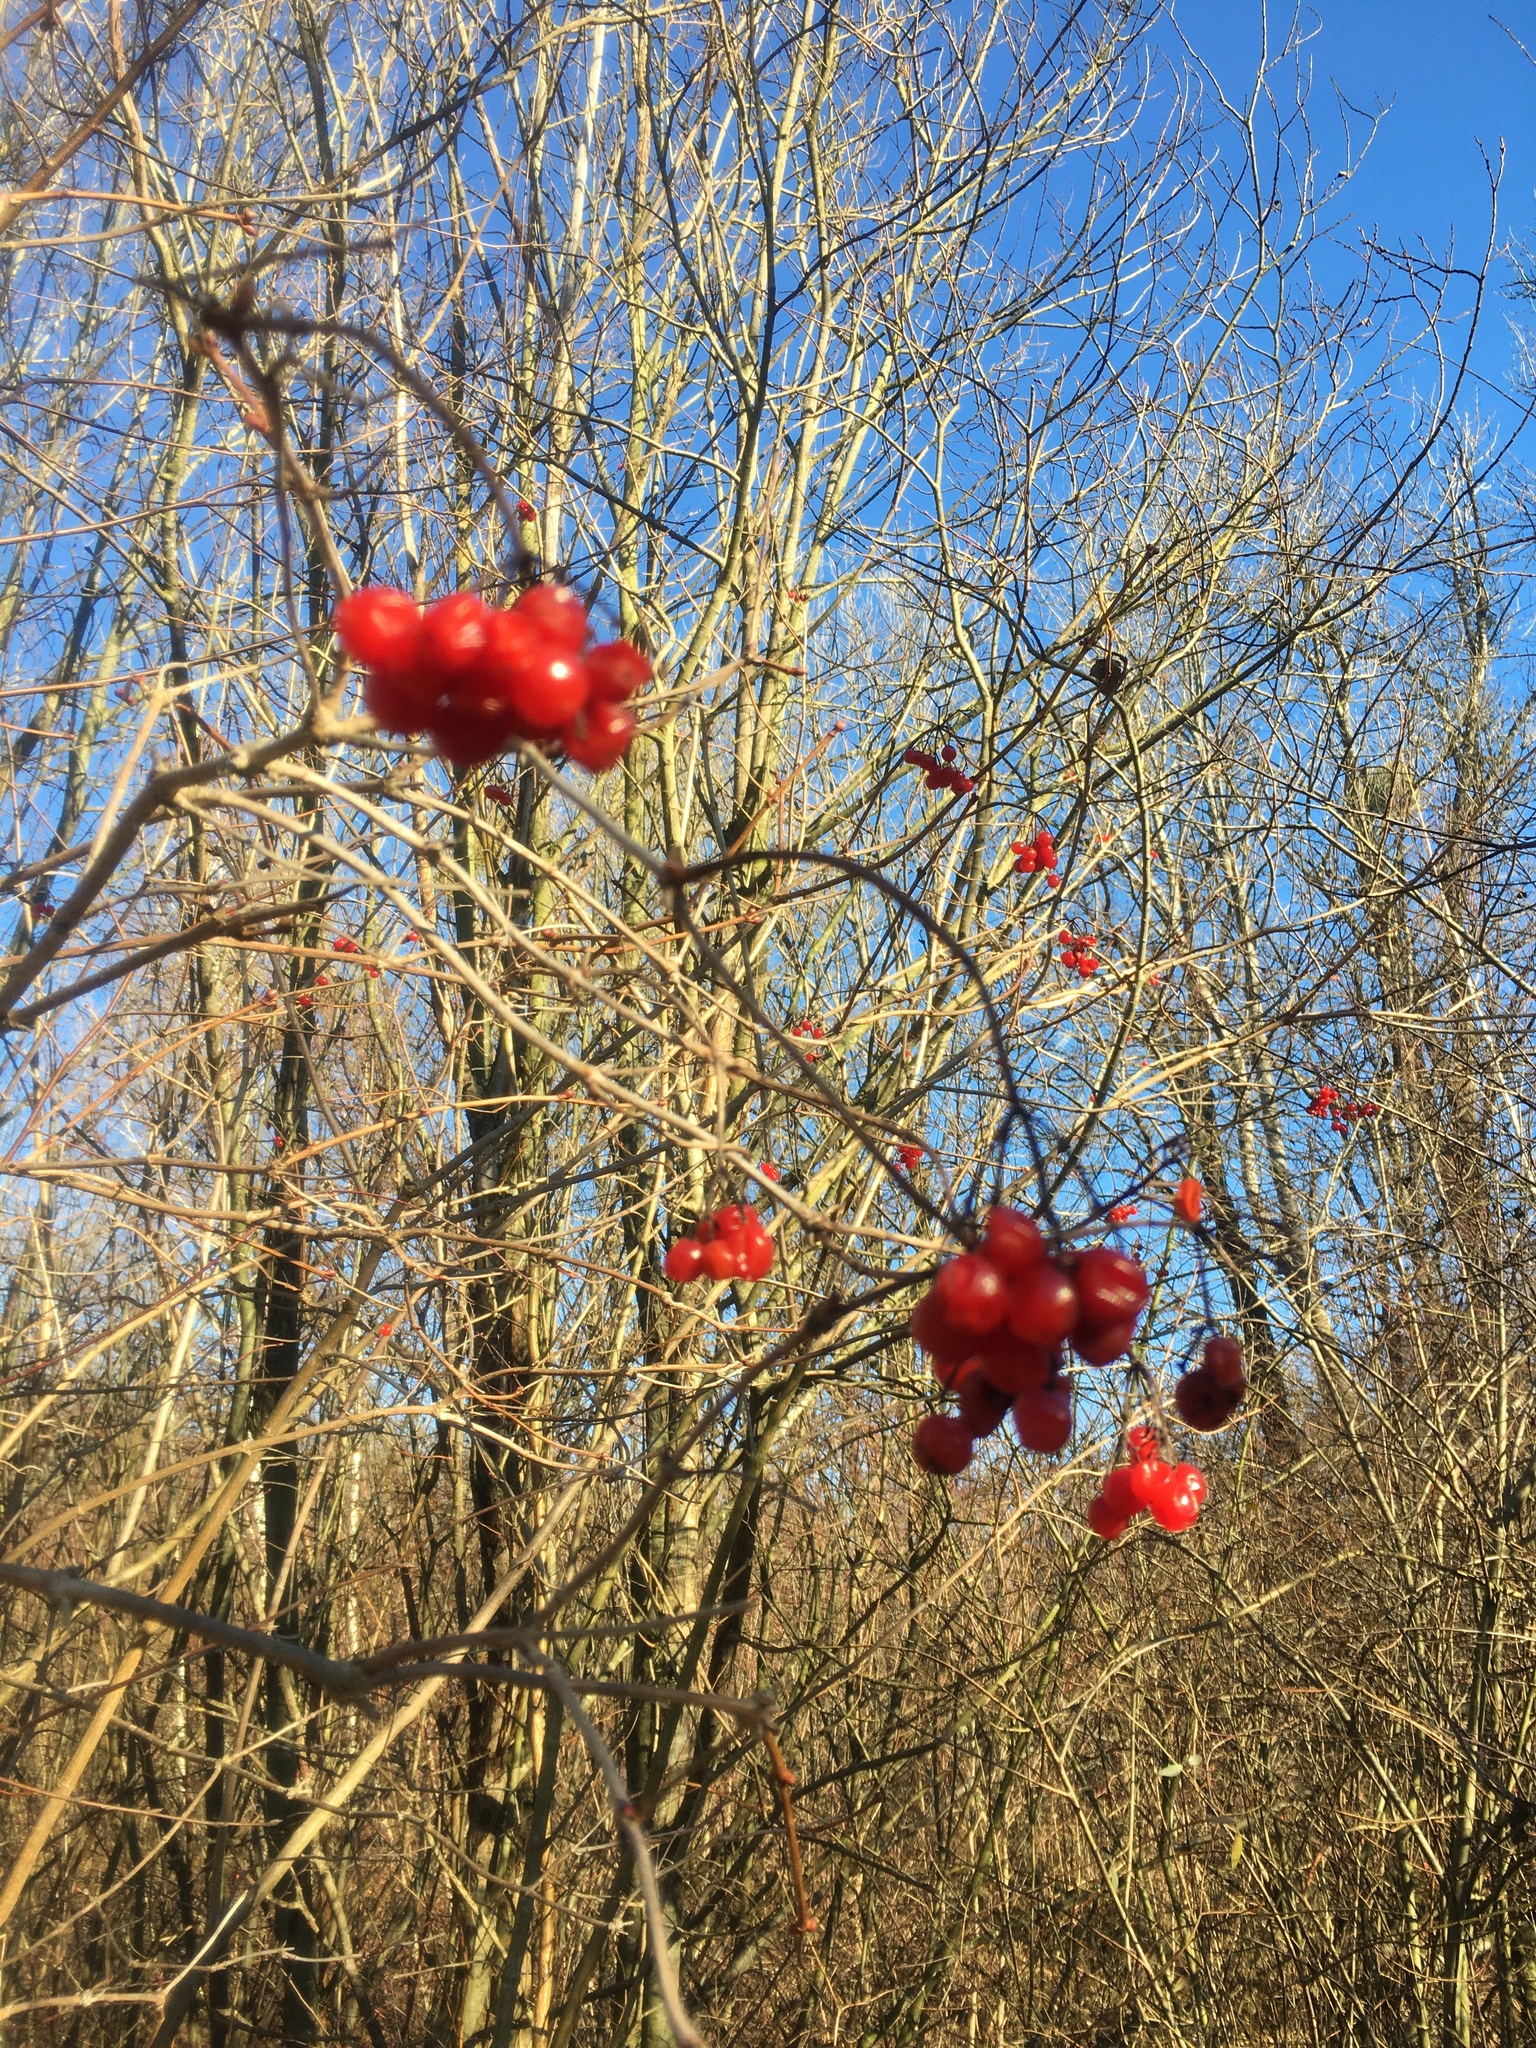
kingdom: Plantae
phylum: Tracheophyta
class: Magnoliopsida
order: Dipsacales
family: Viburnaceae
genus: Viburnum
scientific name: Viburnum opulus
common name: Guelder-rose
